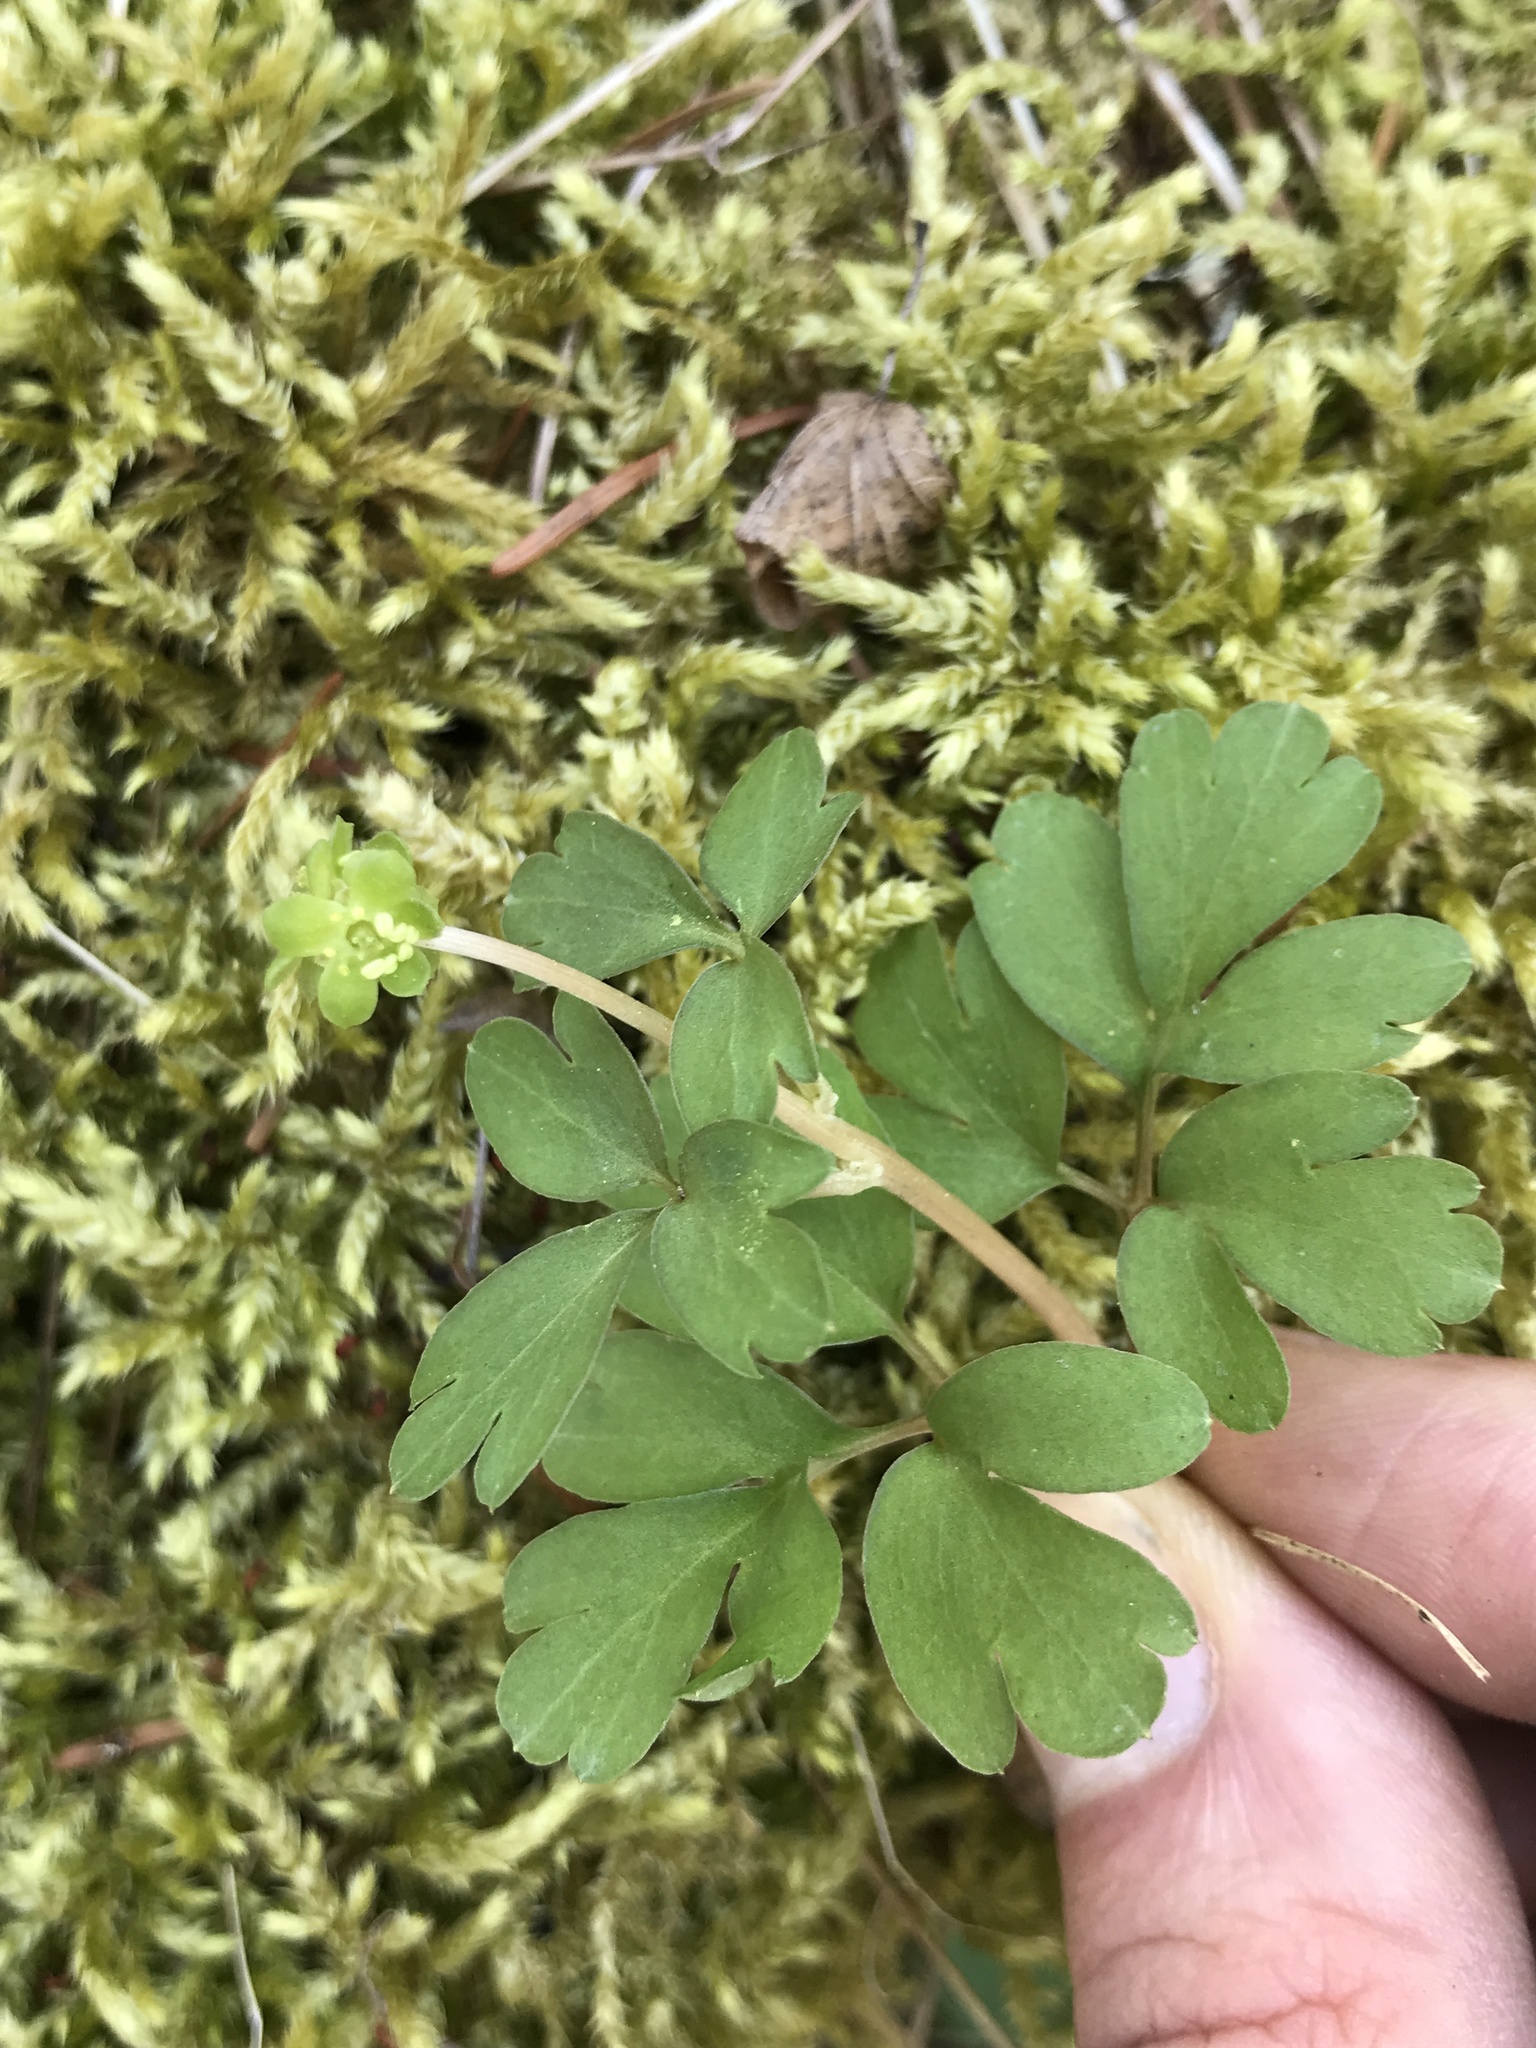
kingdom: Plantae
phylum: Tracheophyta
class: Magnoliopsida
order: Dipsacales
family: Viburnaceae
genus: Adoxa
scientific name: Adoxa moschatellina
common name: Moschatel
